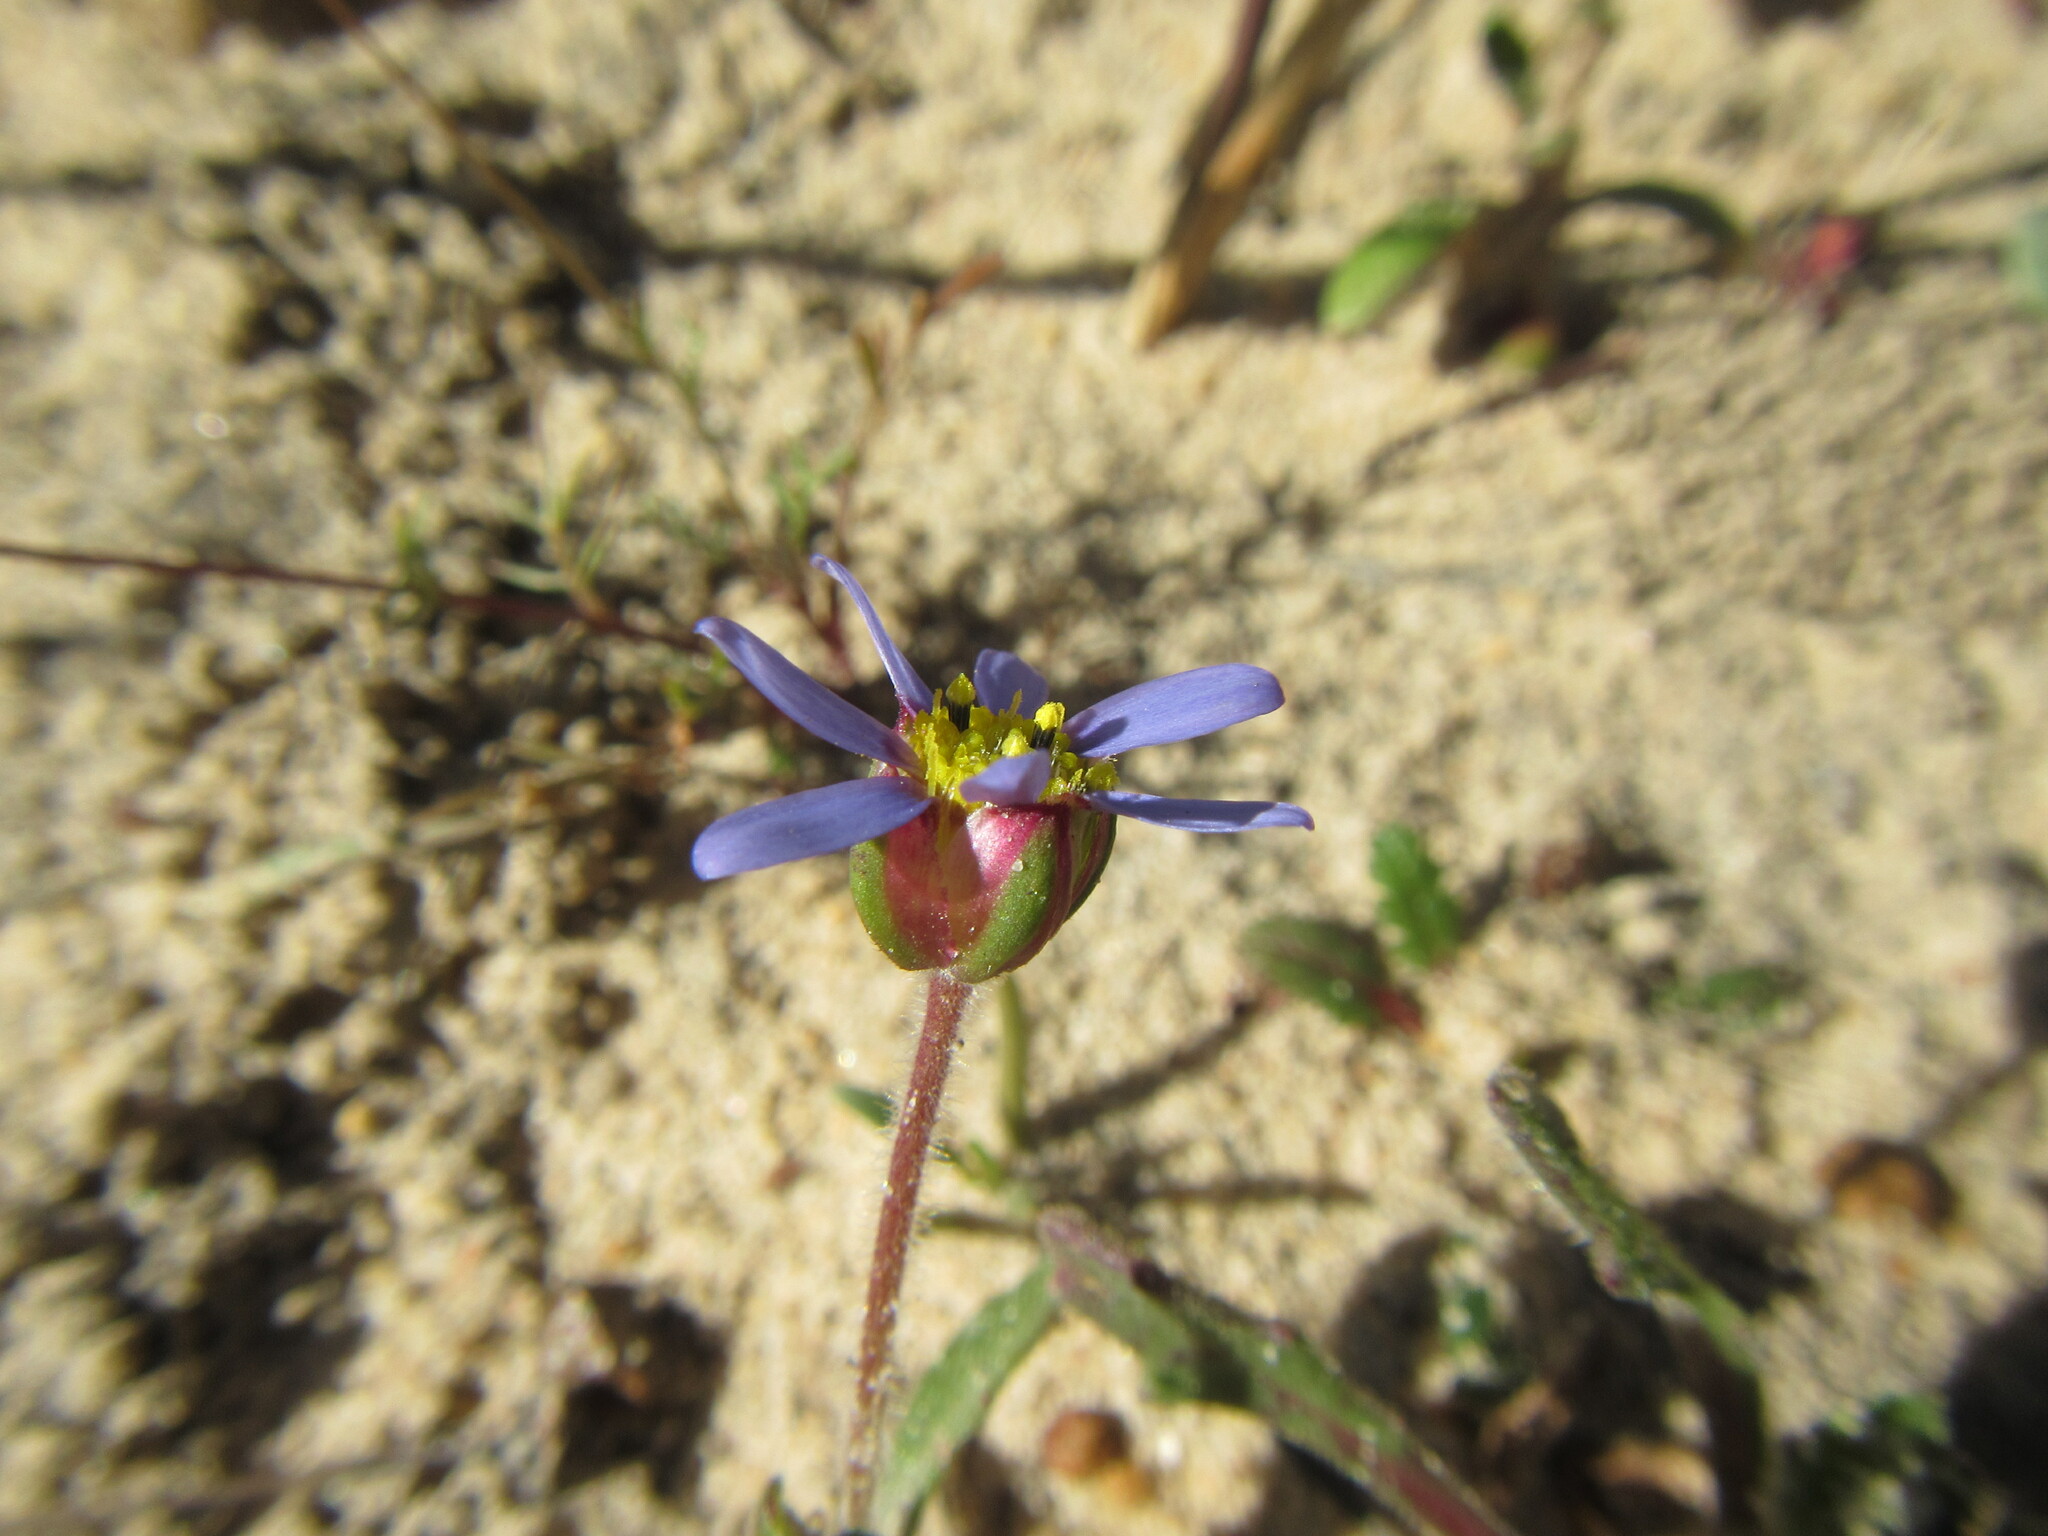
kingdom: Plantae
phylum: Tracheophyta
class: Magnoliopsida
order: Asterales
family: Asteraceae
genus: Felicia
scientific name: Felicia annectens
